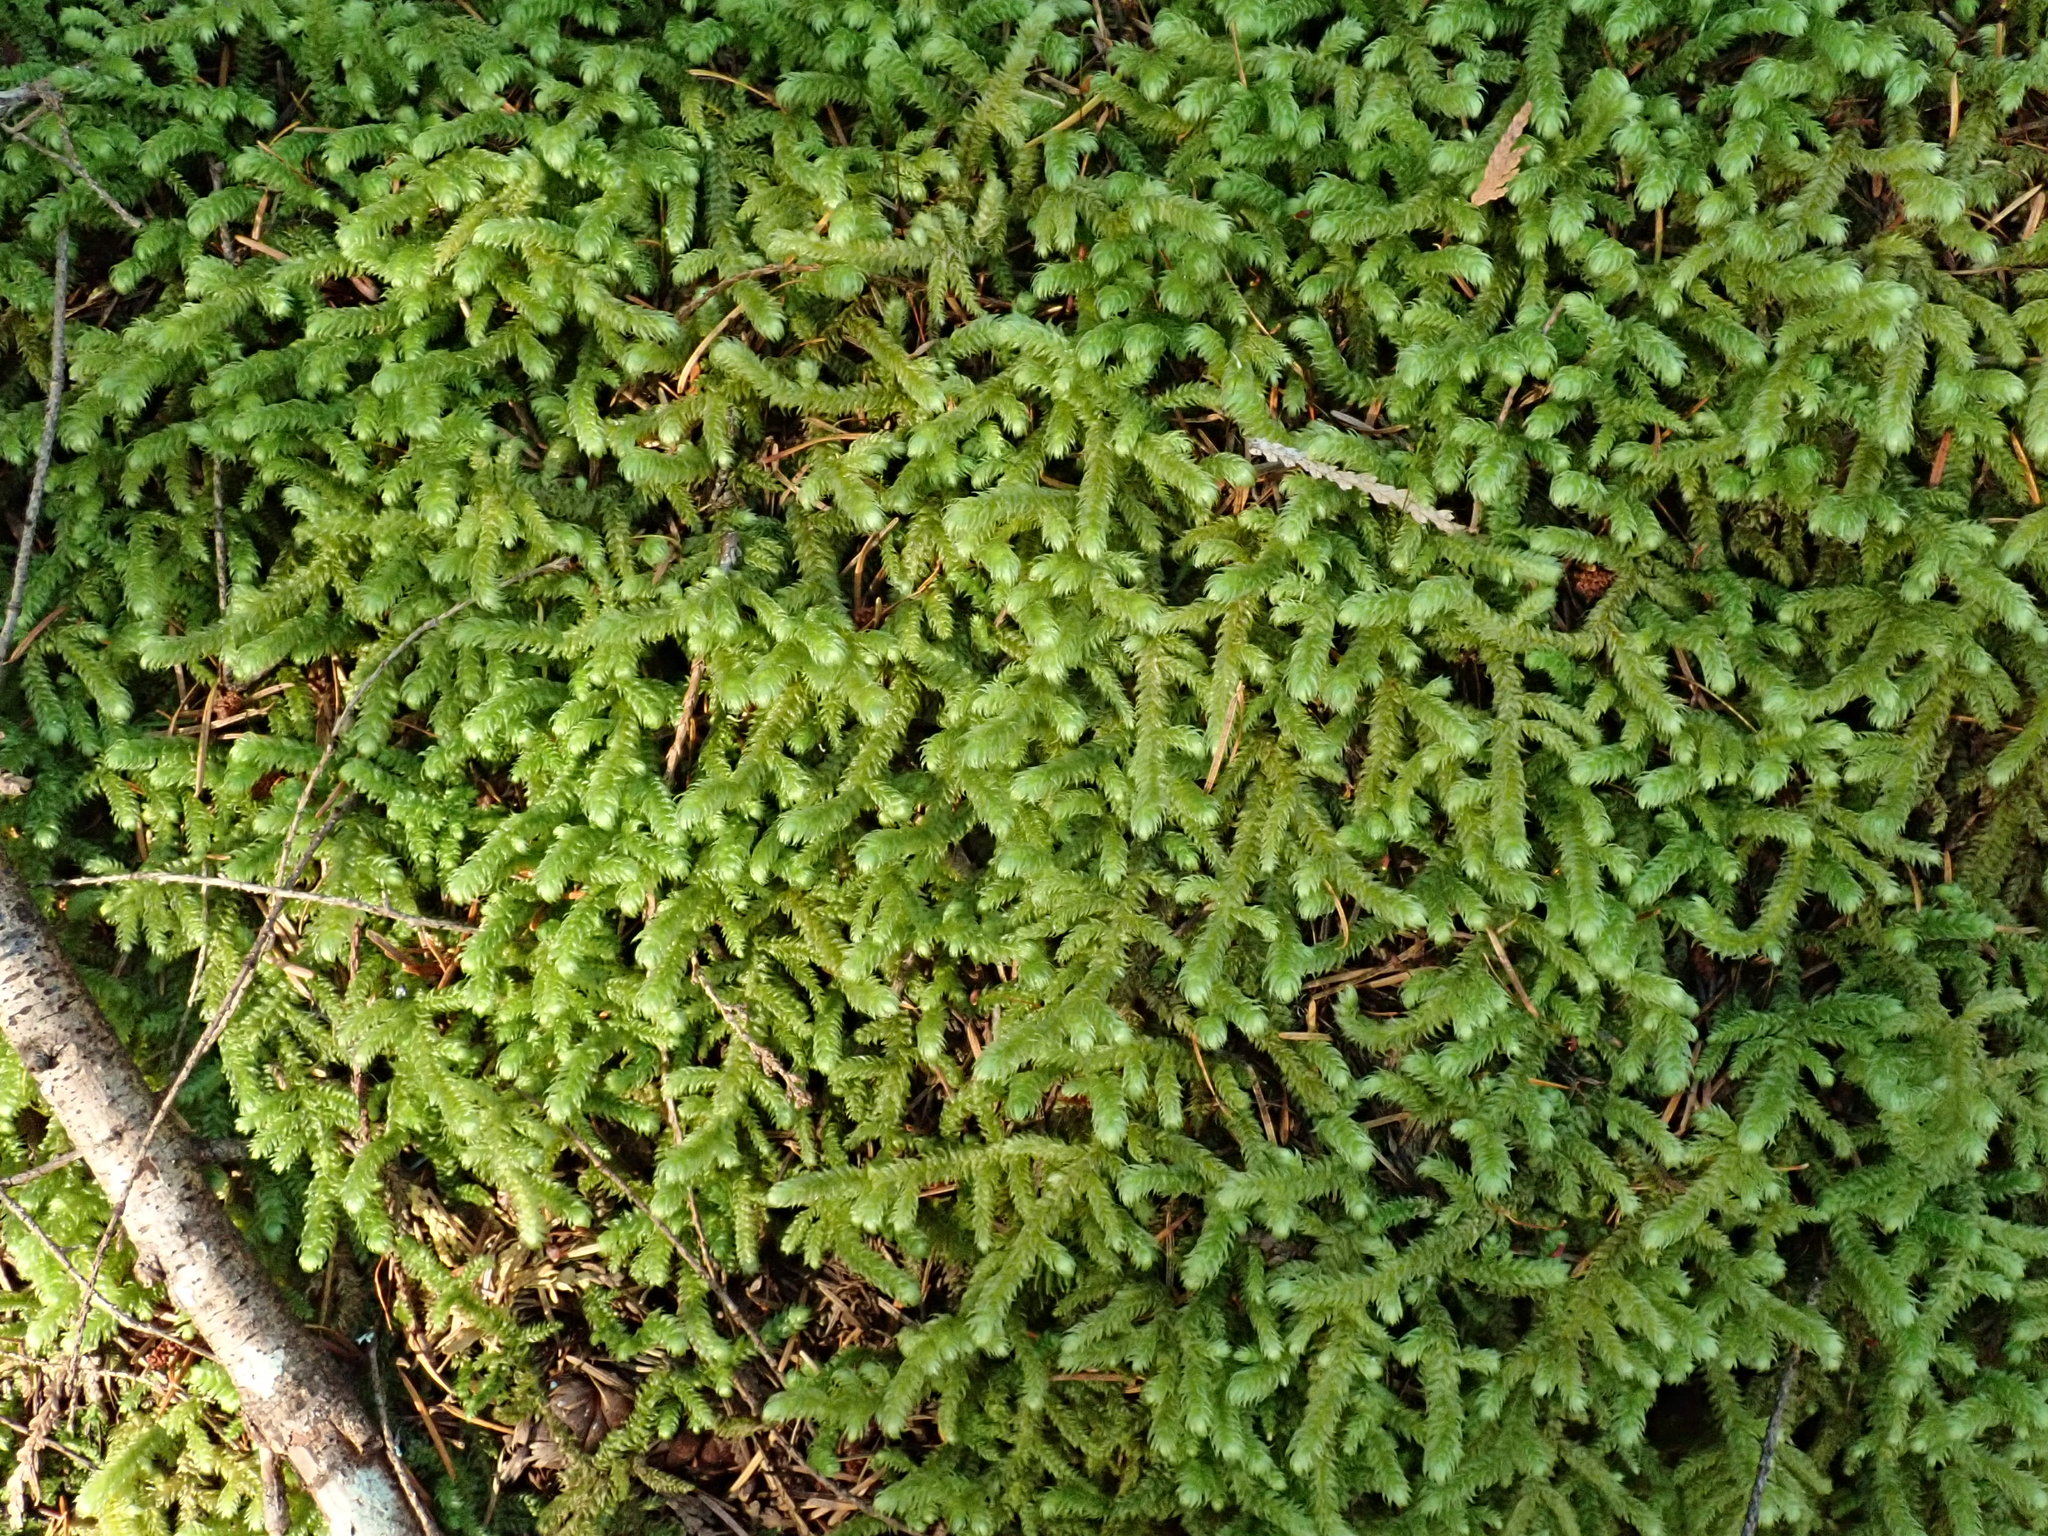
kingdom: Plantae
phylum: Bryophyta
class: Bryopsida
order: Hypnales
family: Hylocomiaceae
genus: Rhytidiopsis
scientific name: Rhytidiopsis robusta
